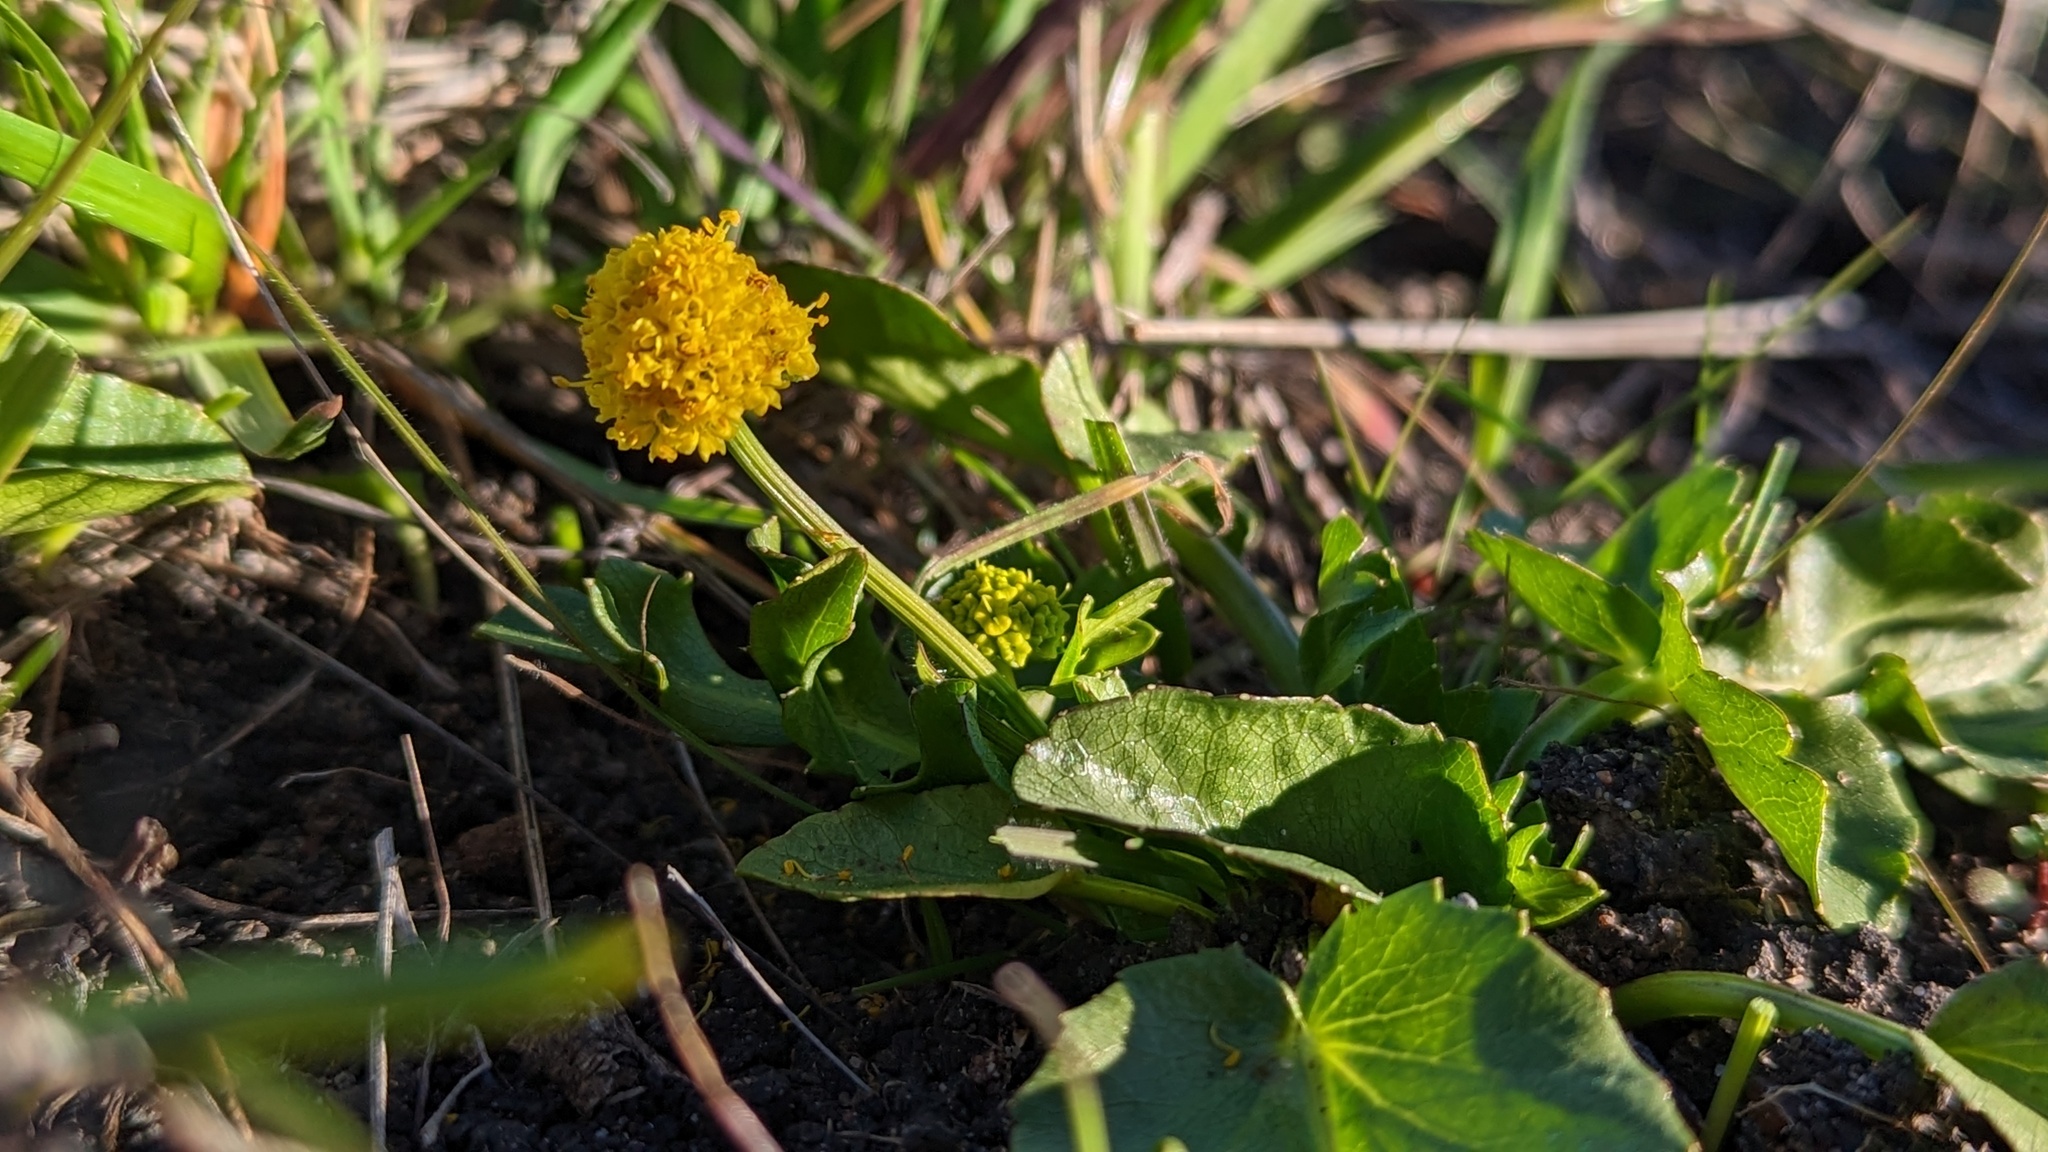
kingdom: Plantae
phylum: Tracheophyta
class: Magnoliopsida
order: Apiales
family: Apiaceae
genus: Sanicula
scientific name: Sanicula maritima
